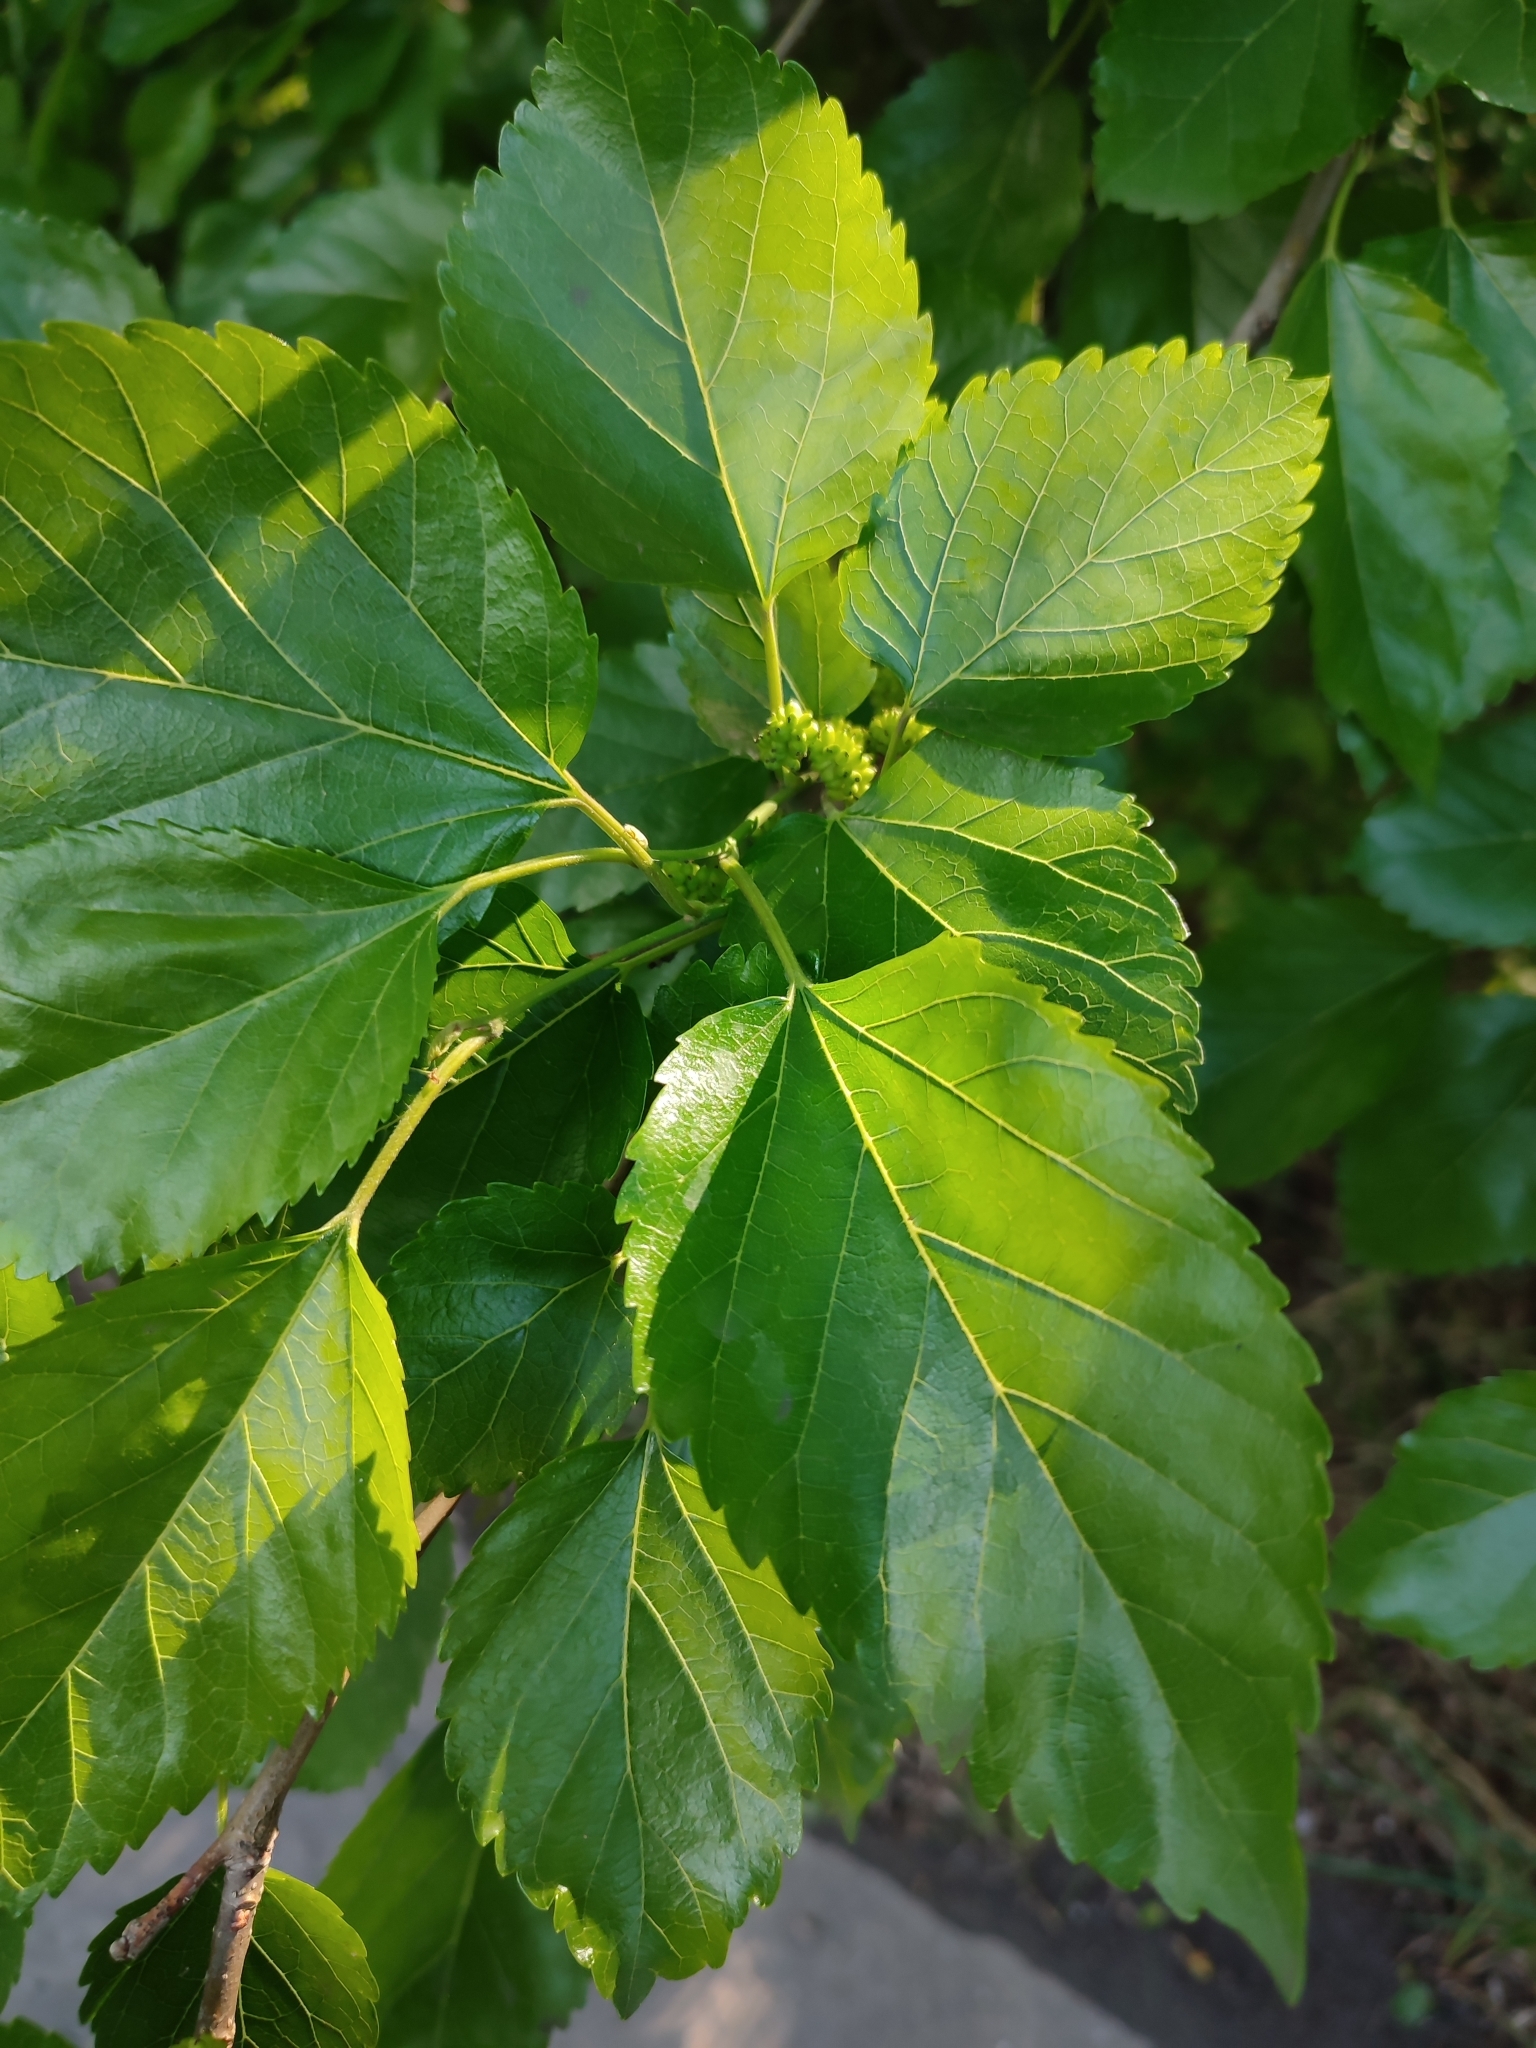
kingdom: Plantae
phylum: Tracheophyta
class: Magnoliopsida
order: Rosales
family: Moraceae
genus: Morus
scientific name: Morus alba
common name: White mulberry
